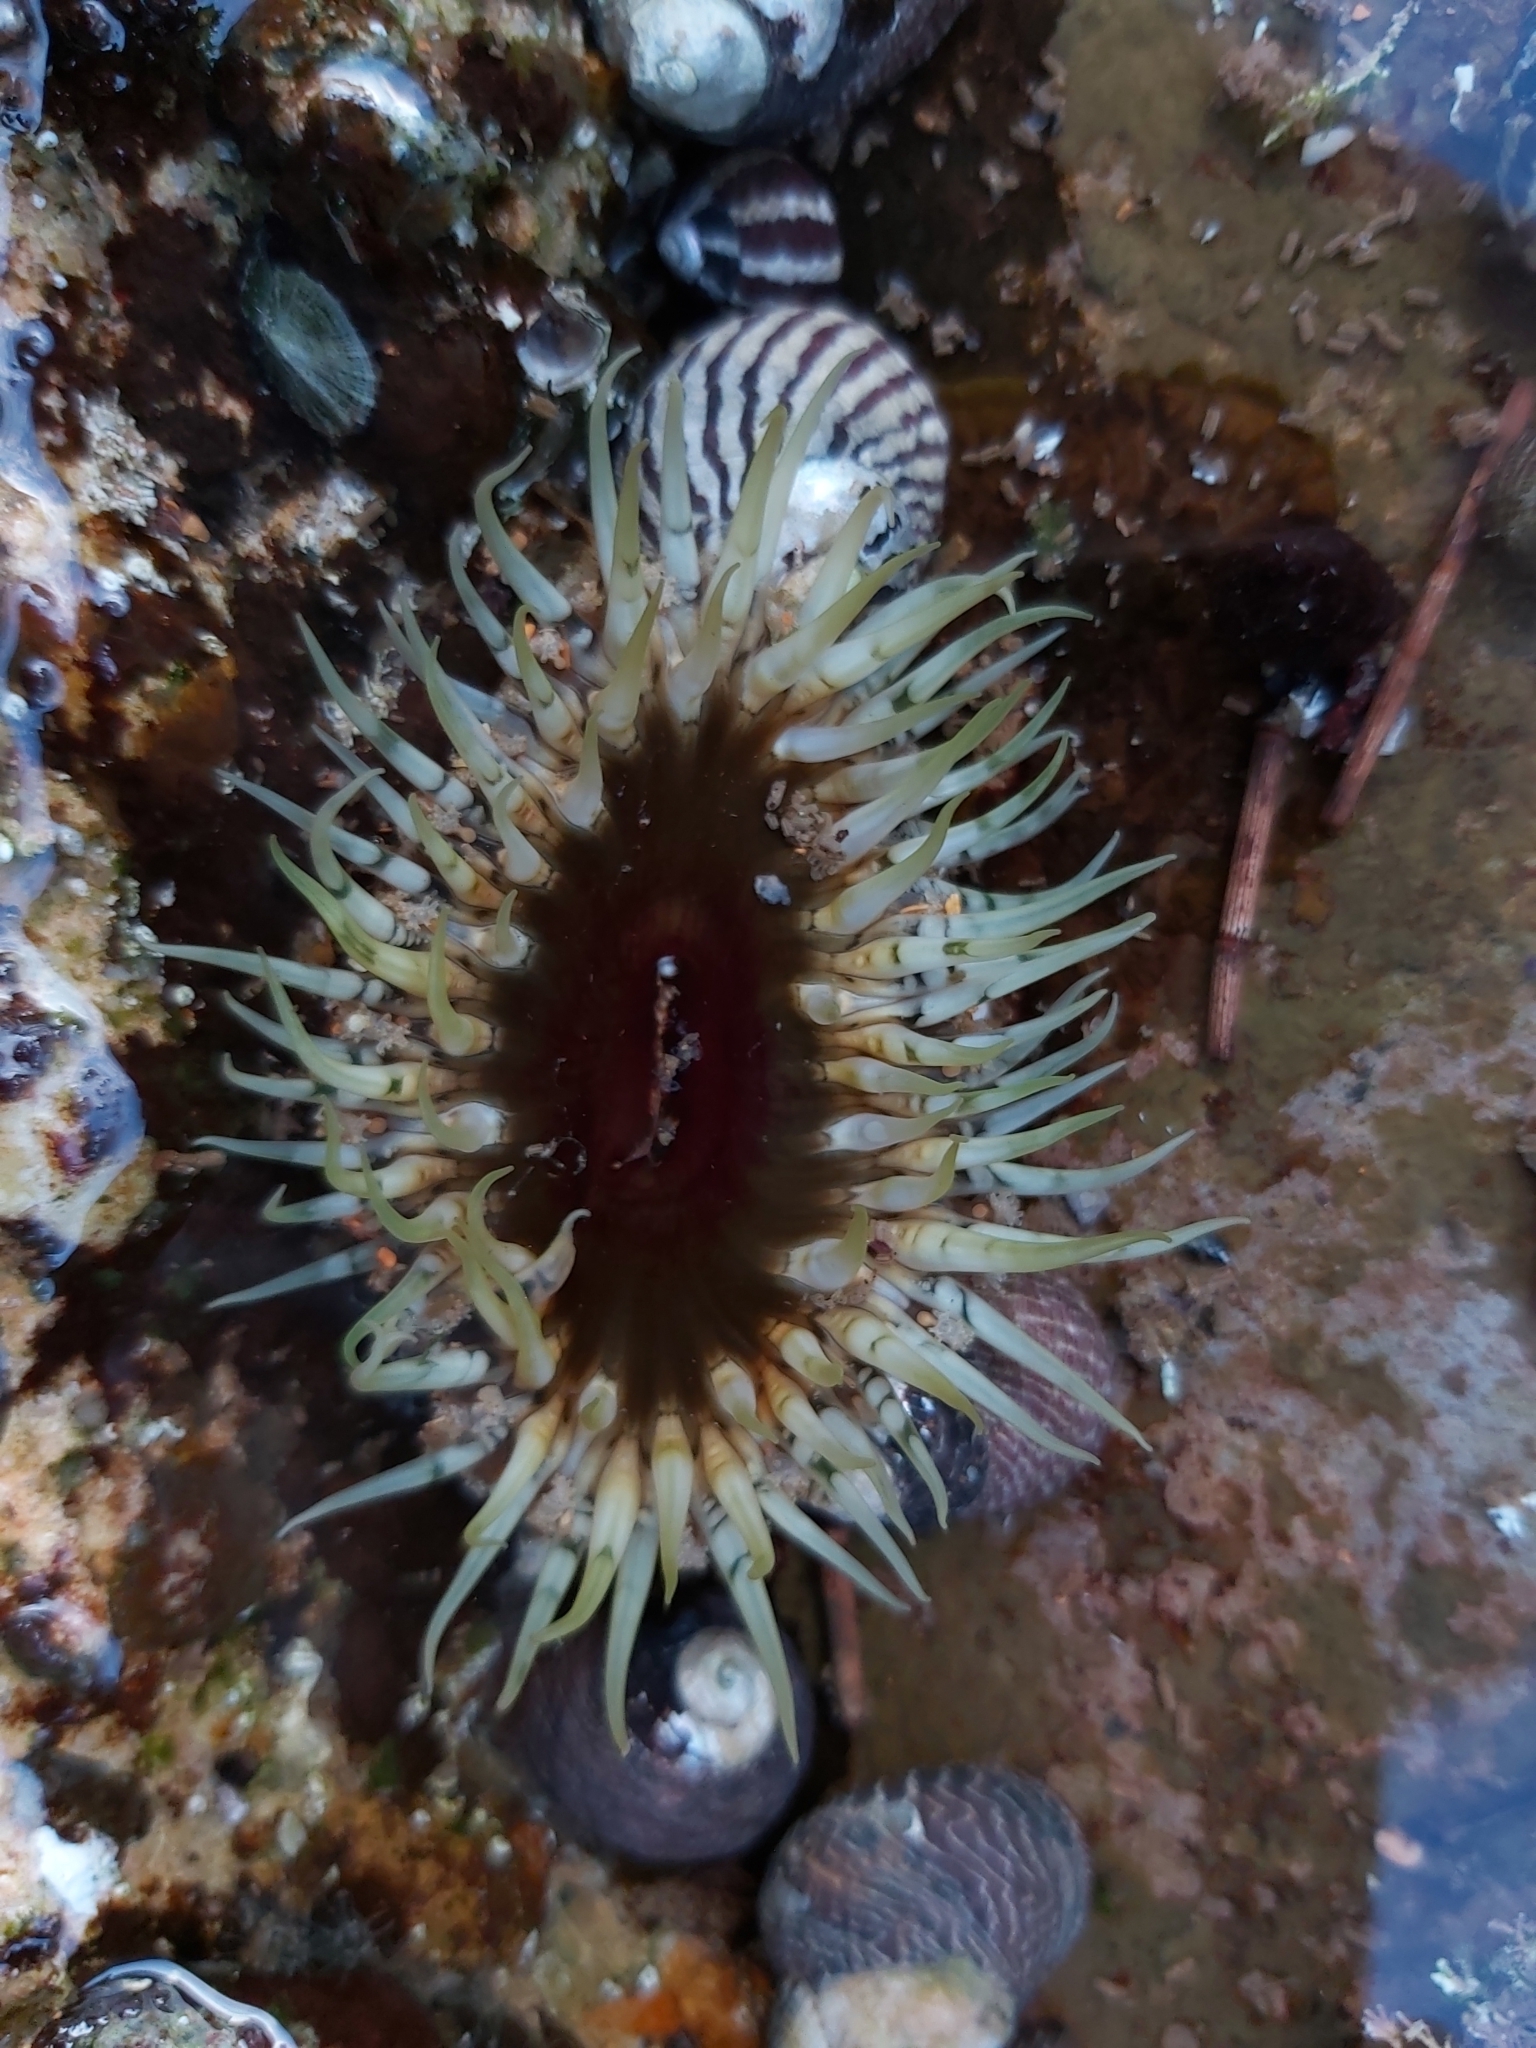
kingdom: Animalia
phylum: Cnidaria
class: Anthozoa
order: Actiniaria
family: Actiniidae
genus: Oulactis
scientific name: Oulactis muscosa
